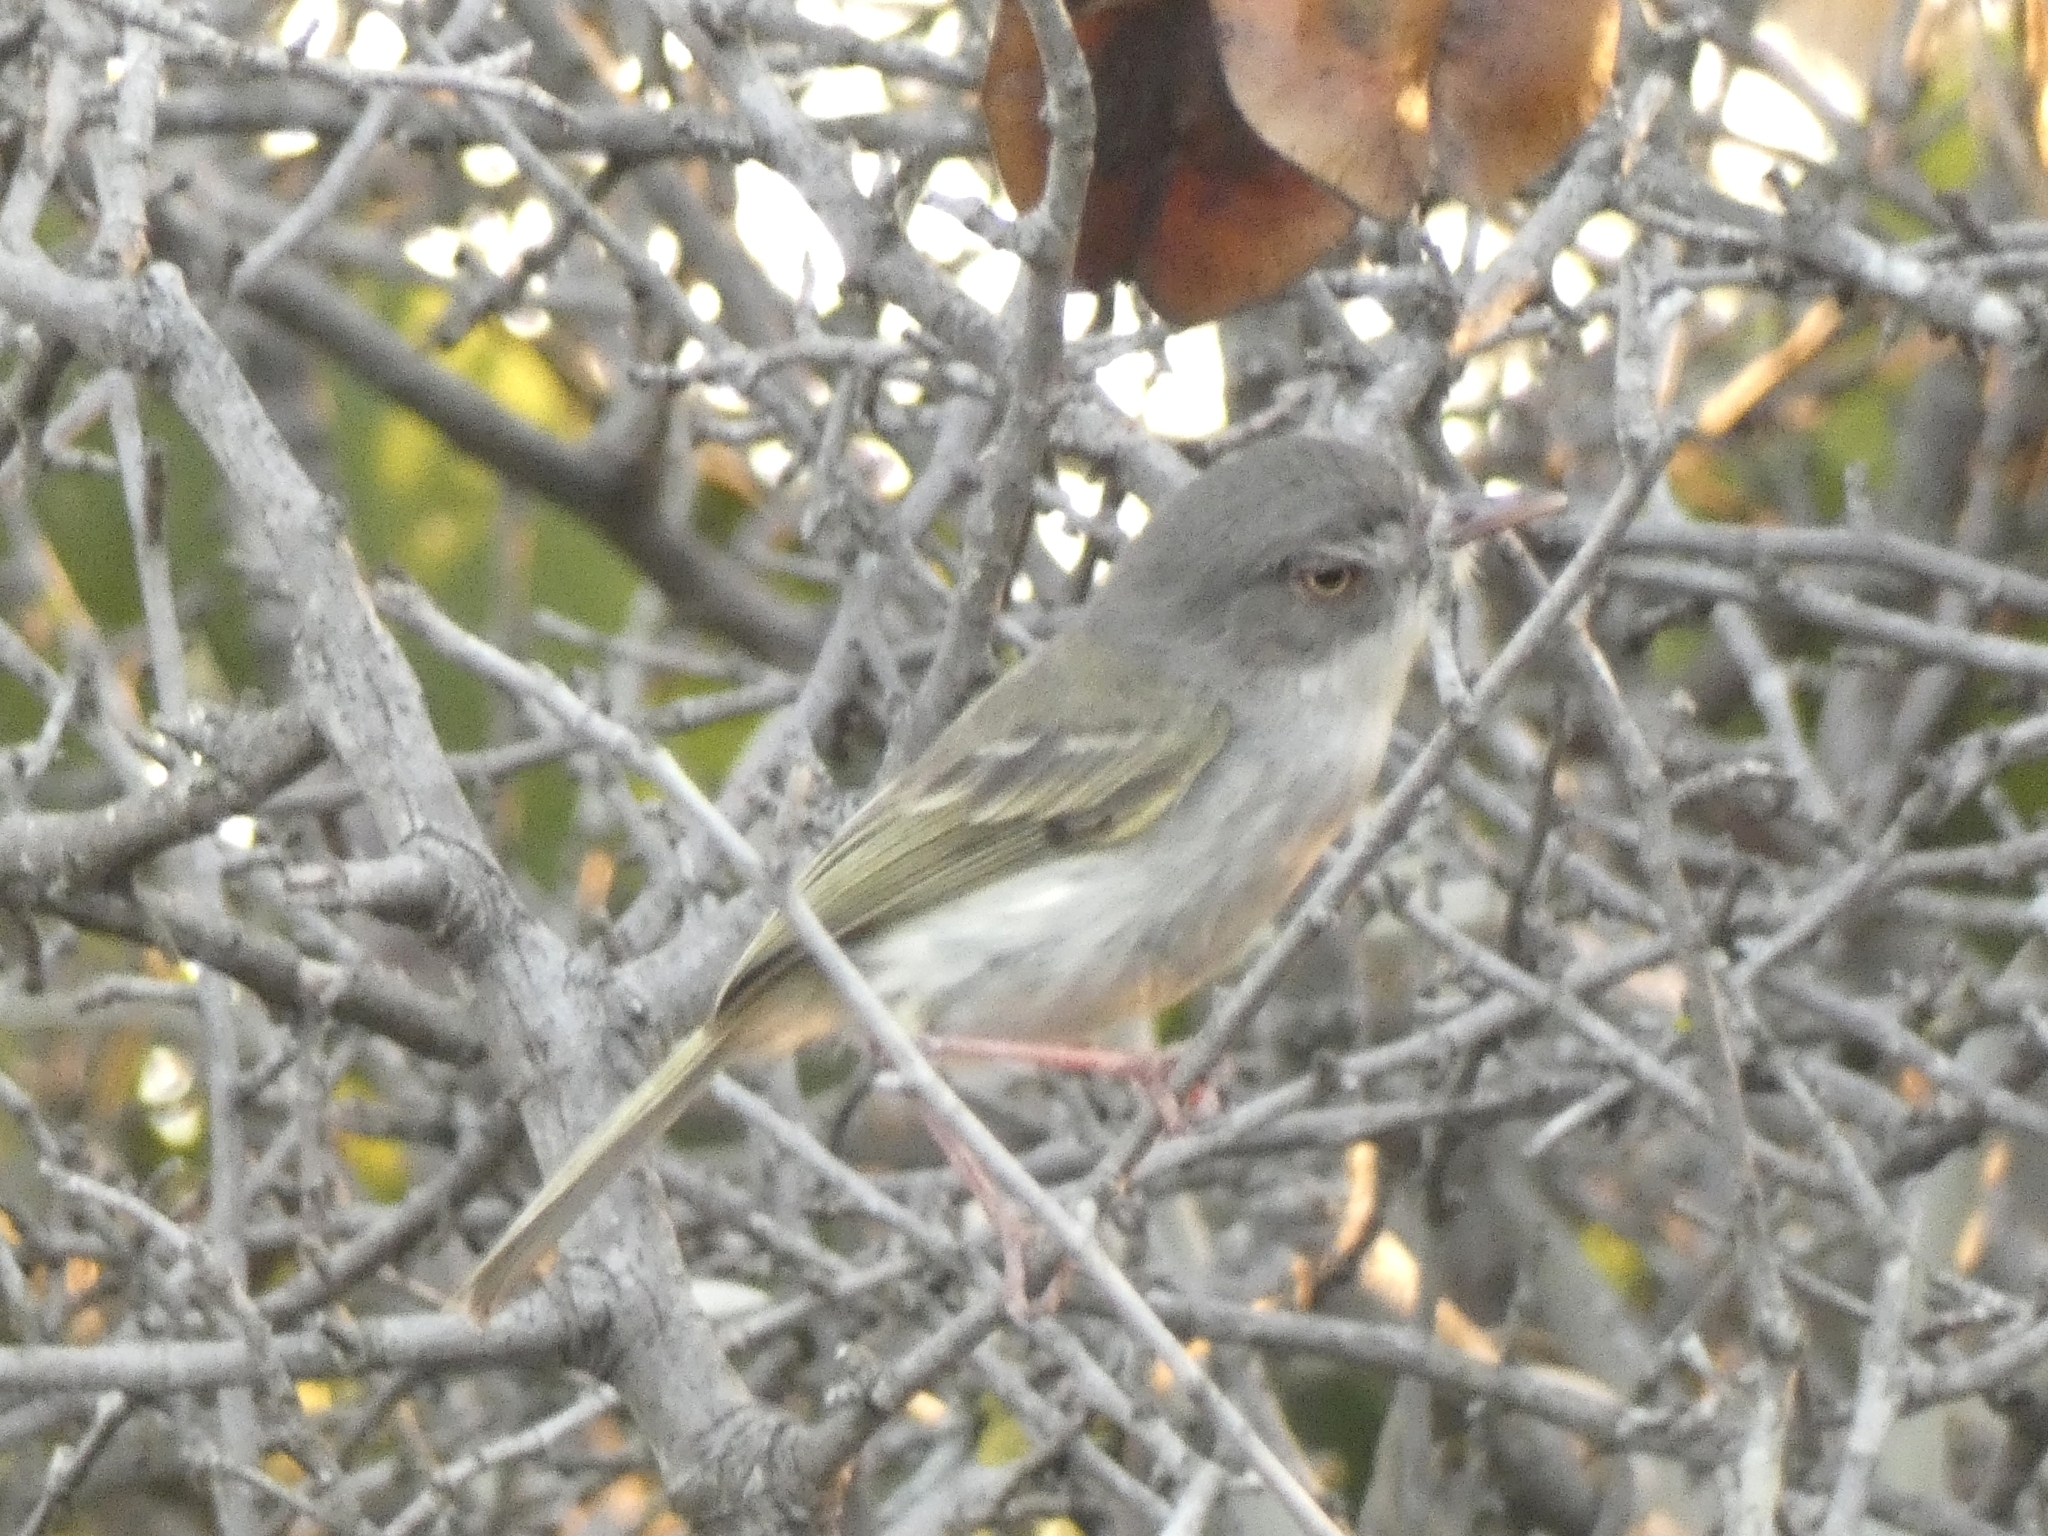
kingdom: Animalia
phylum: Chordata
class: Aves
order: Passeriformes
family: Tyrannidae
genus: Hemitriccus
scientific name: Hemitriccus margaritaceiventer
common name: Pearly-vented tody-tyrant
